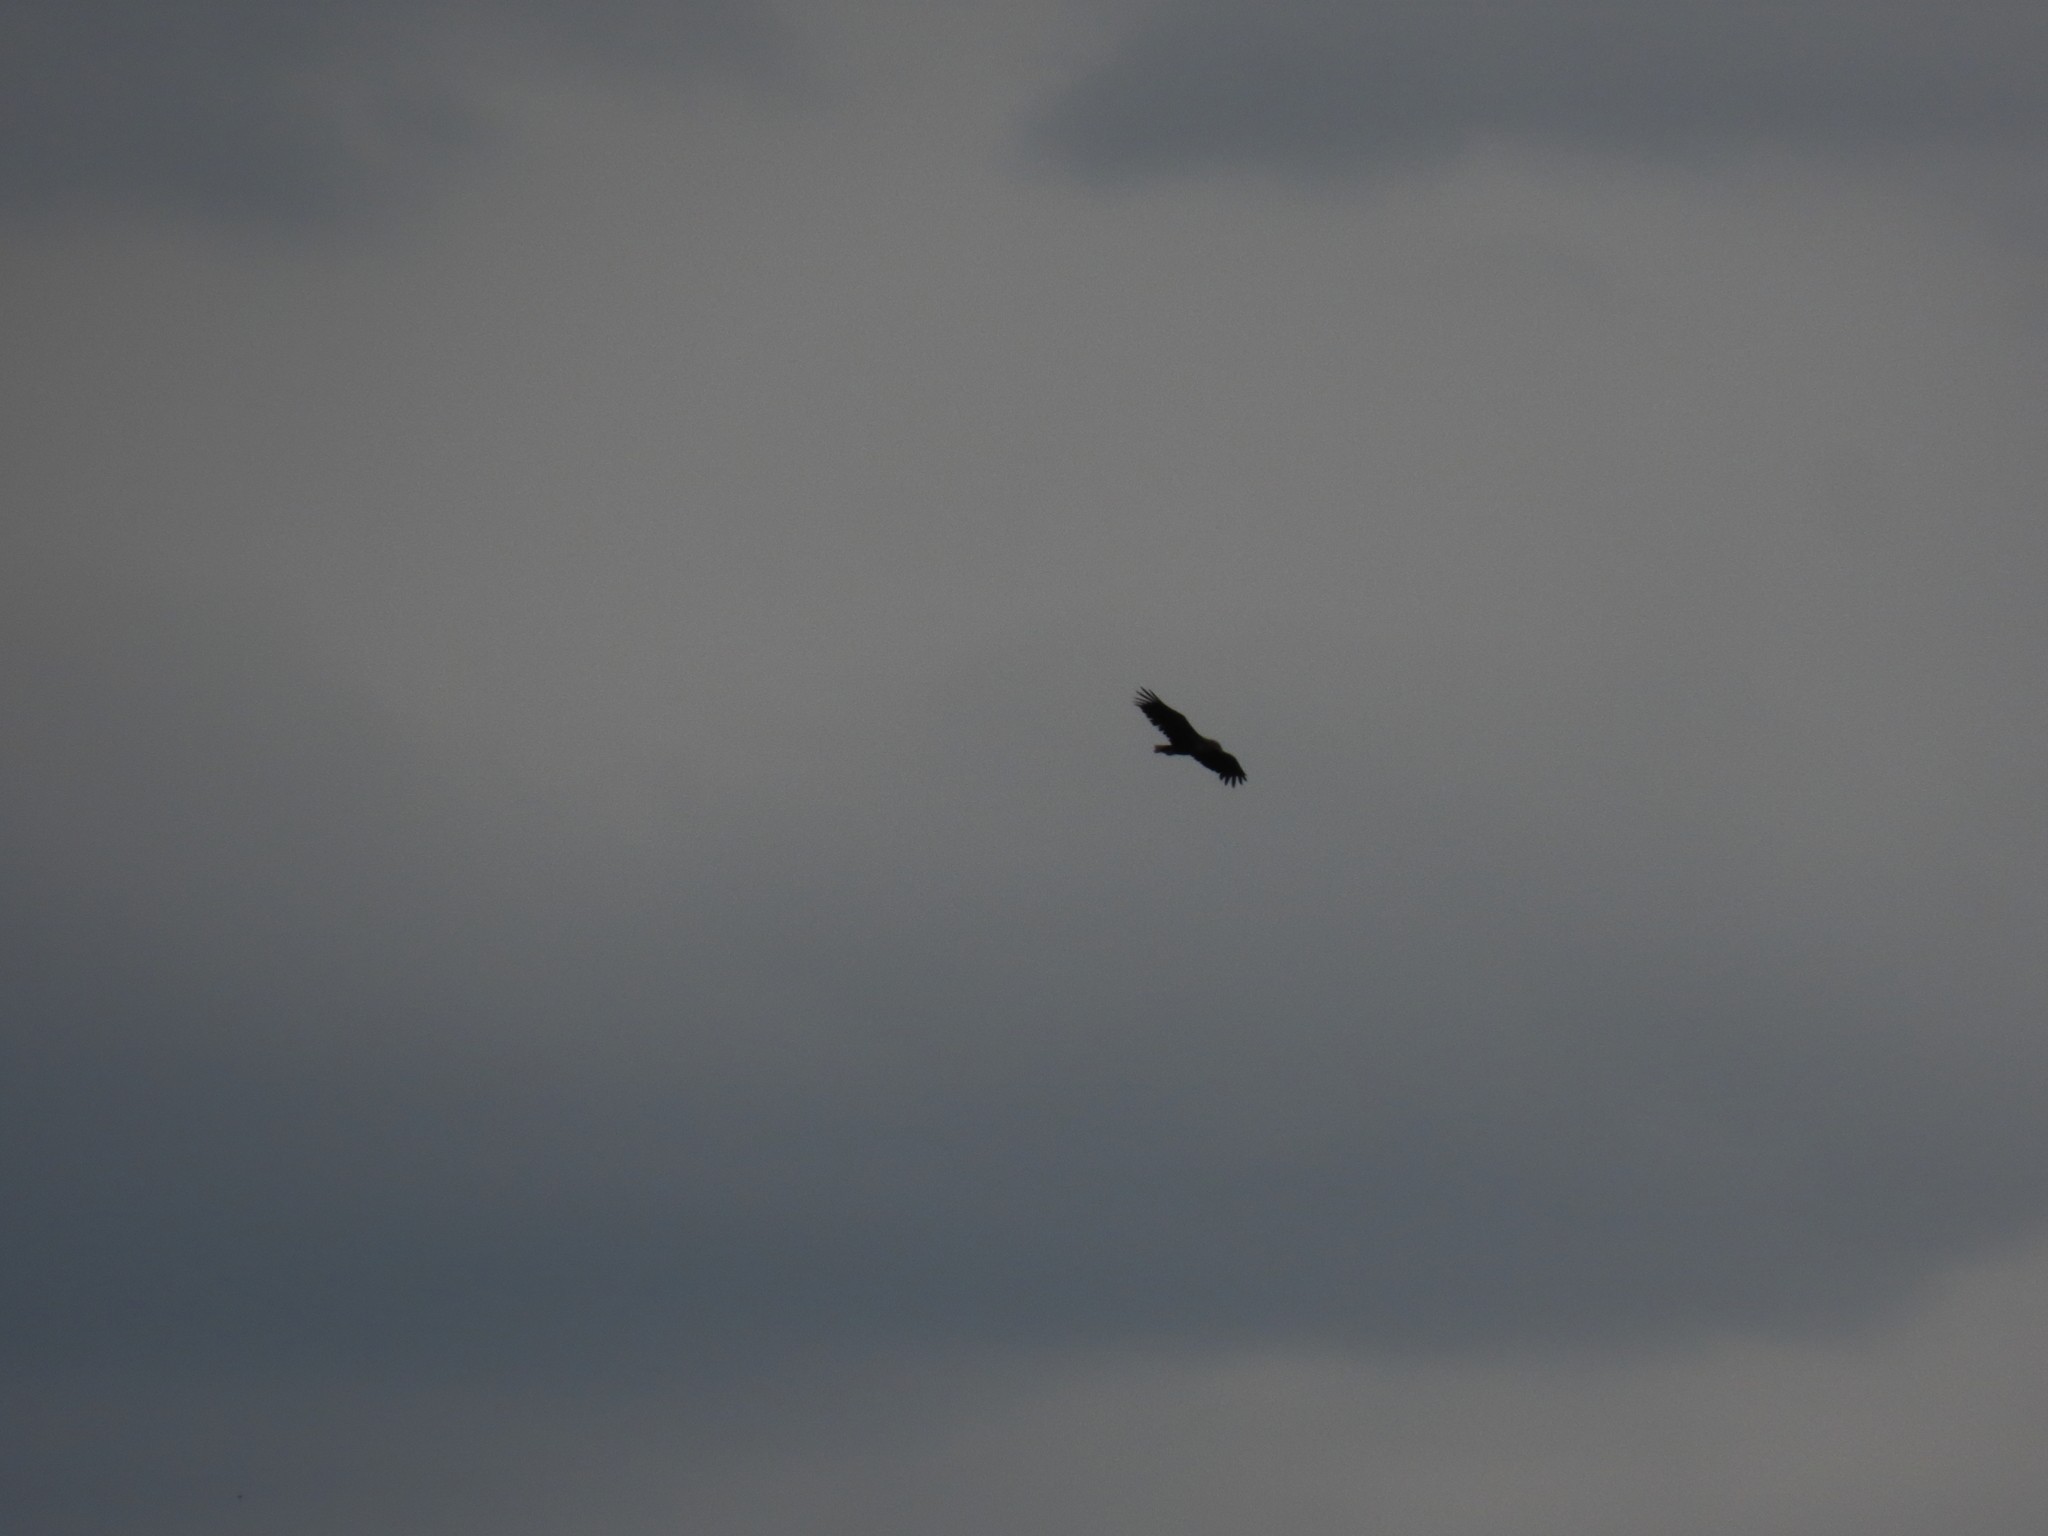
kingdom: Animalia
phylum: Chordata
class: Aves
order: Accipitriformes
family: Accipitridae
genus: Haliaeetus
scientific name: Haliaeetus albicilla
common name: White-tailed eagle
